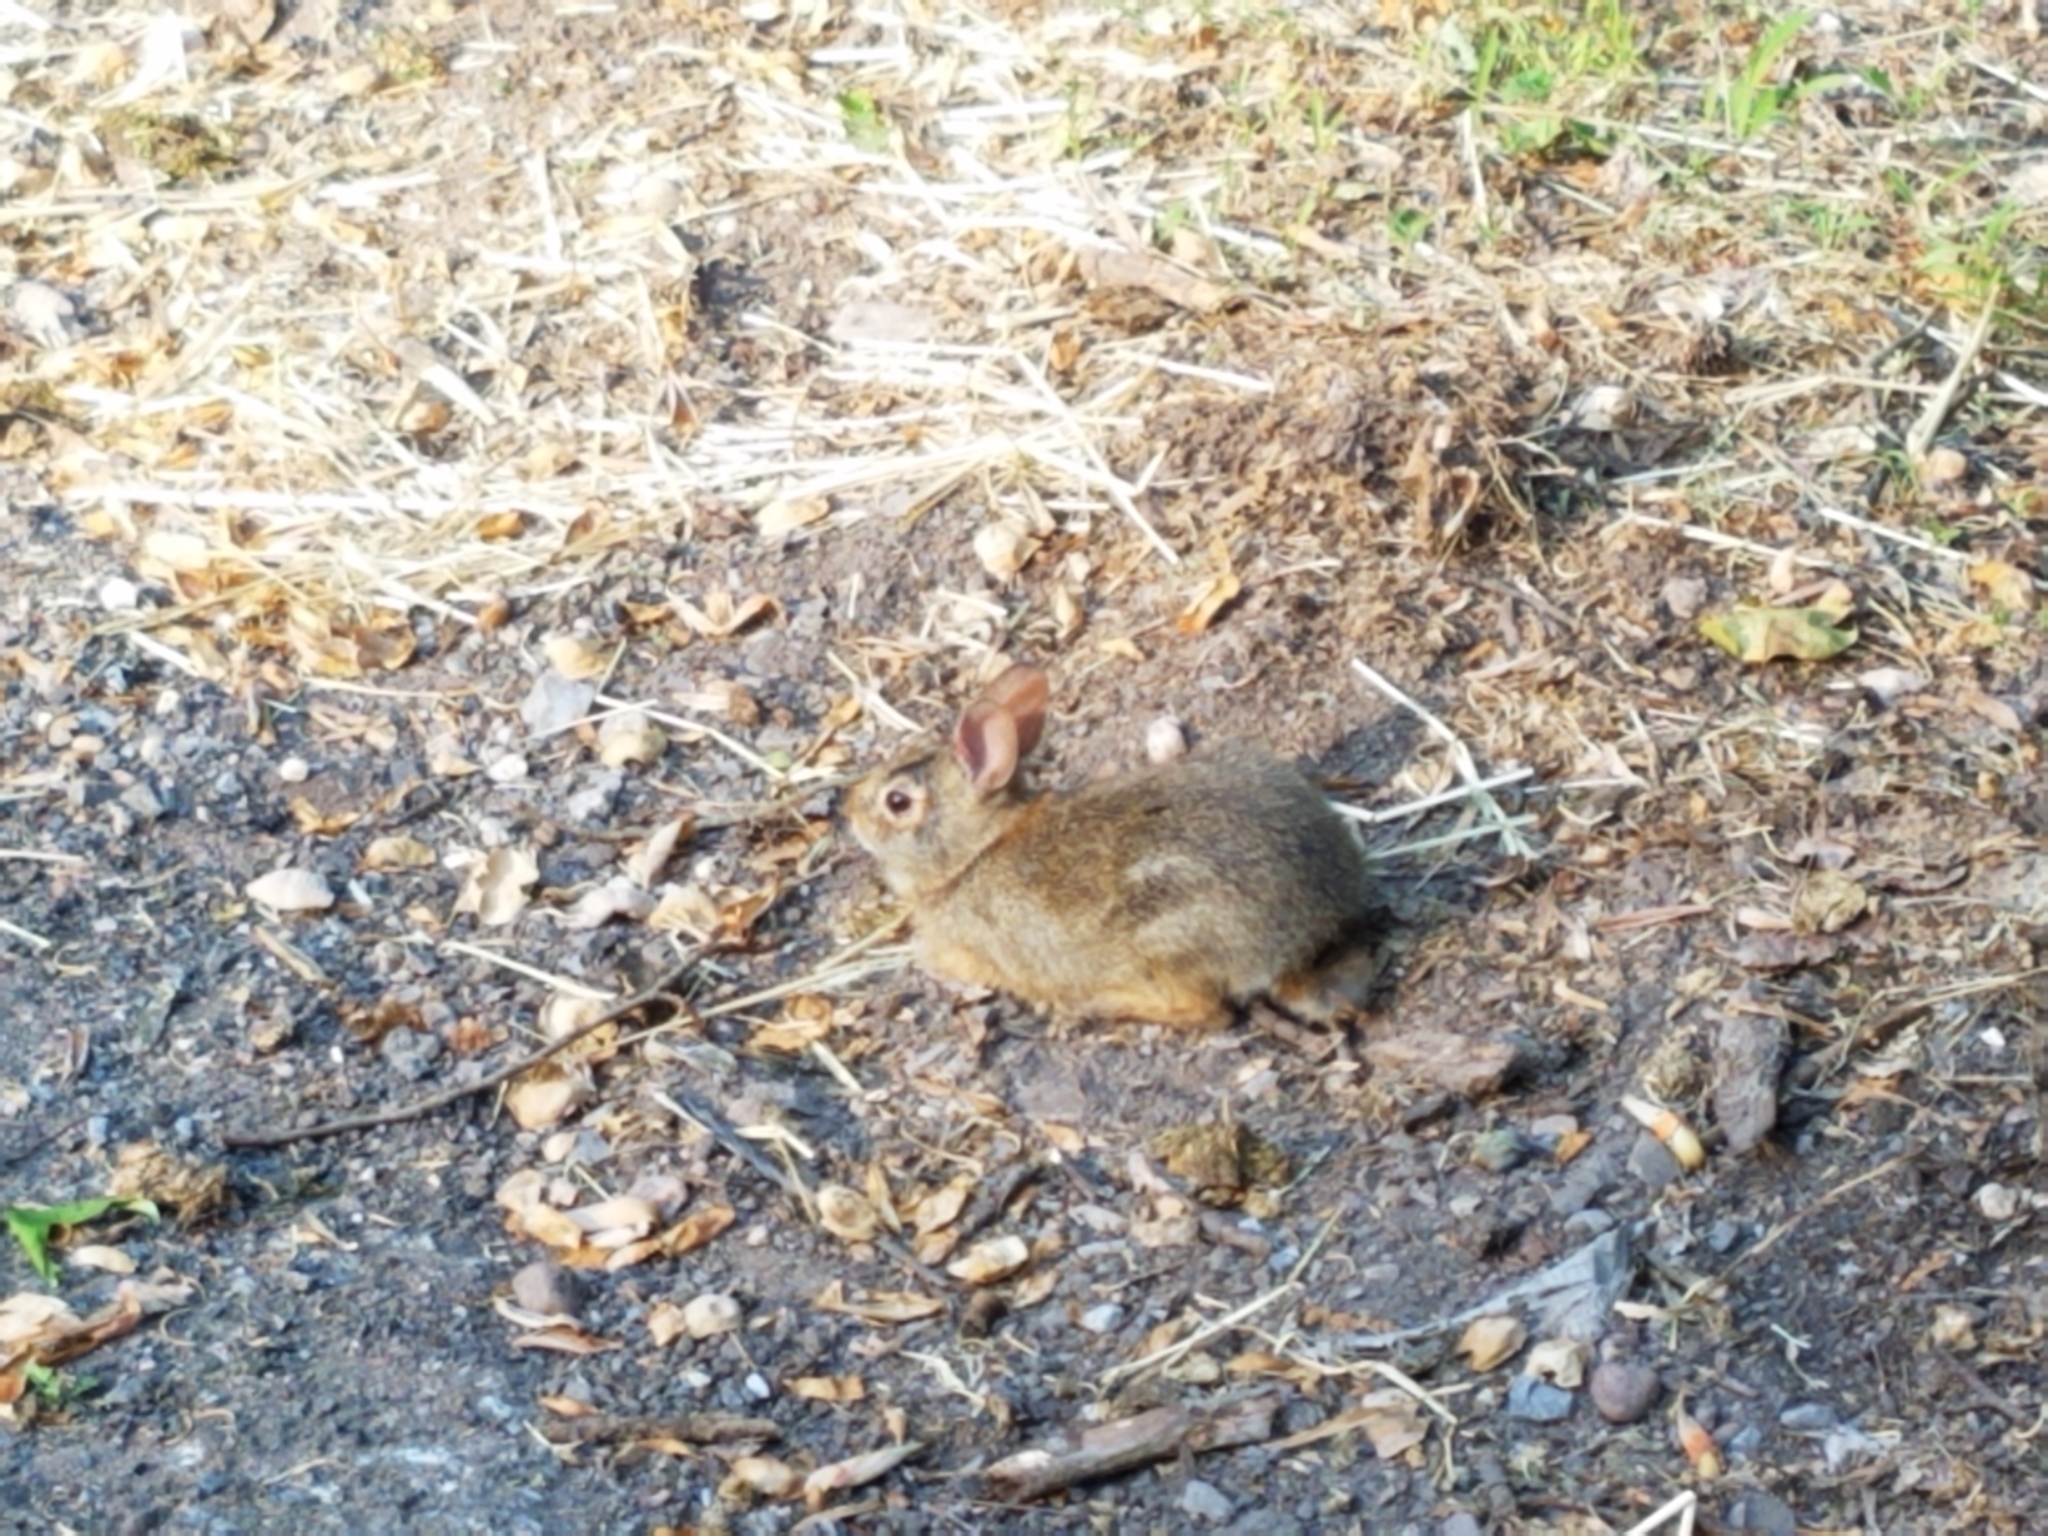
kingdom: Animalia
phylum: Chordata
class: Mammalia
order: Lagomorpha
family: Leporidae
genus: Sylvilagus
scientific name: Sylvilagus floridanus
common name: Eastern cottontail
